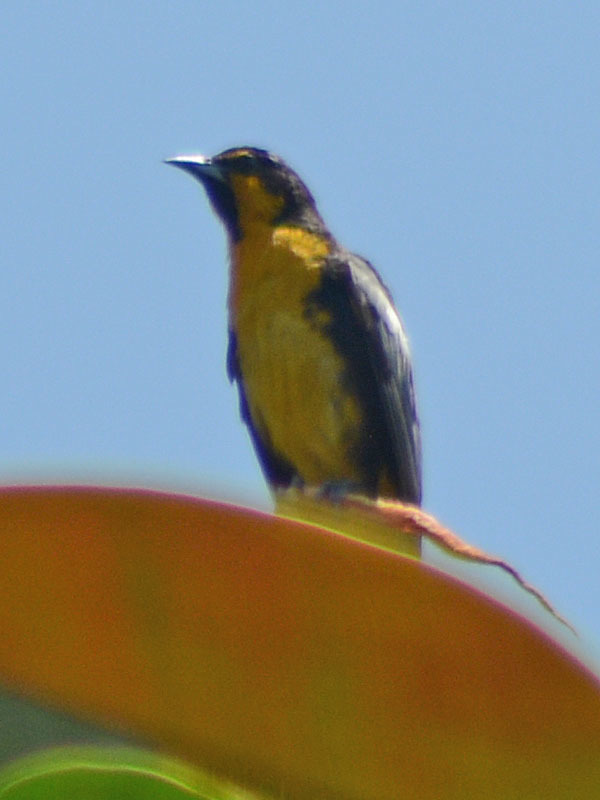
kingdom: Animalia
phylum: Chordata
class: Aves
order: Passeriformes
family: Icteridae
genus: Icterus
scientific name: Icterus abeillei
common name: Black-backed oriole
